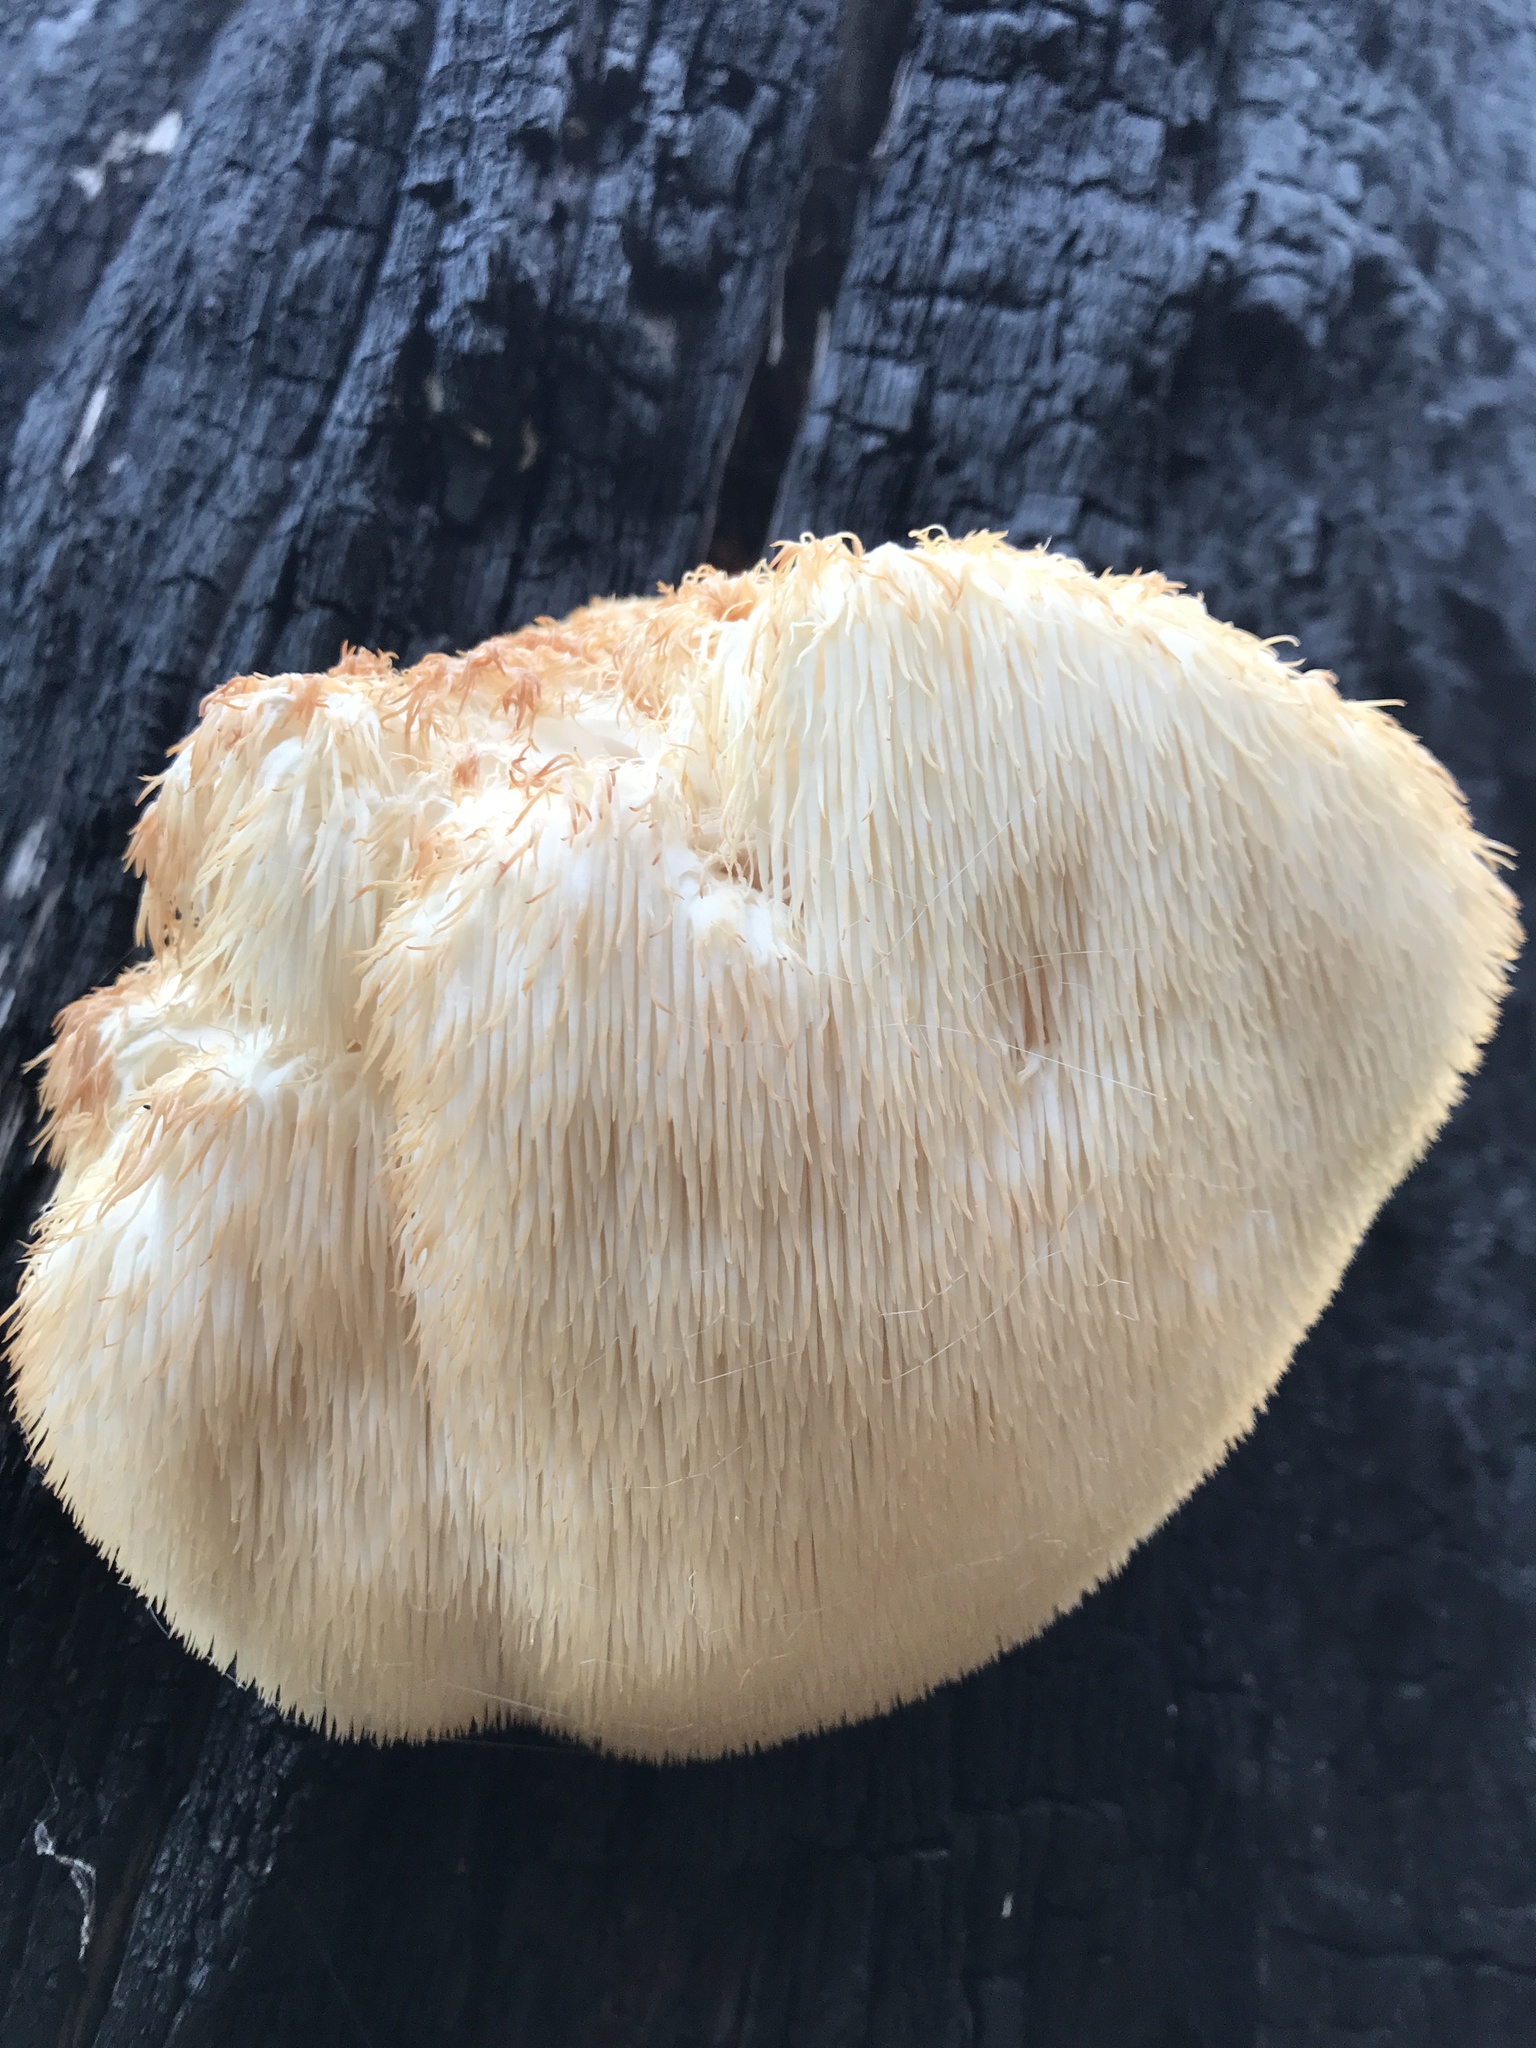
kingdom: Fungi
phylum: Basidiomycota
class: Agaricomycetes
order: Russulales
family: Hericiaceae
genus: Hericium
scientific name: Hericium erinaceus
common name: Bearded tooth
